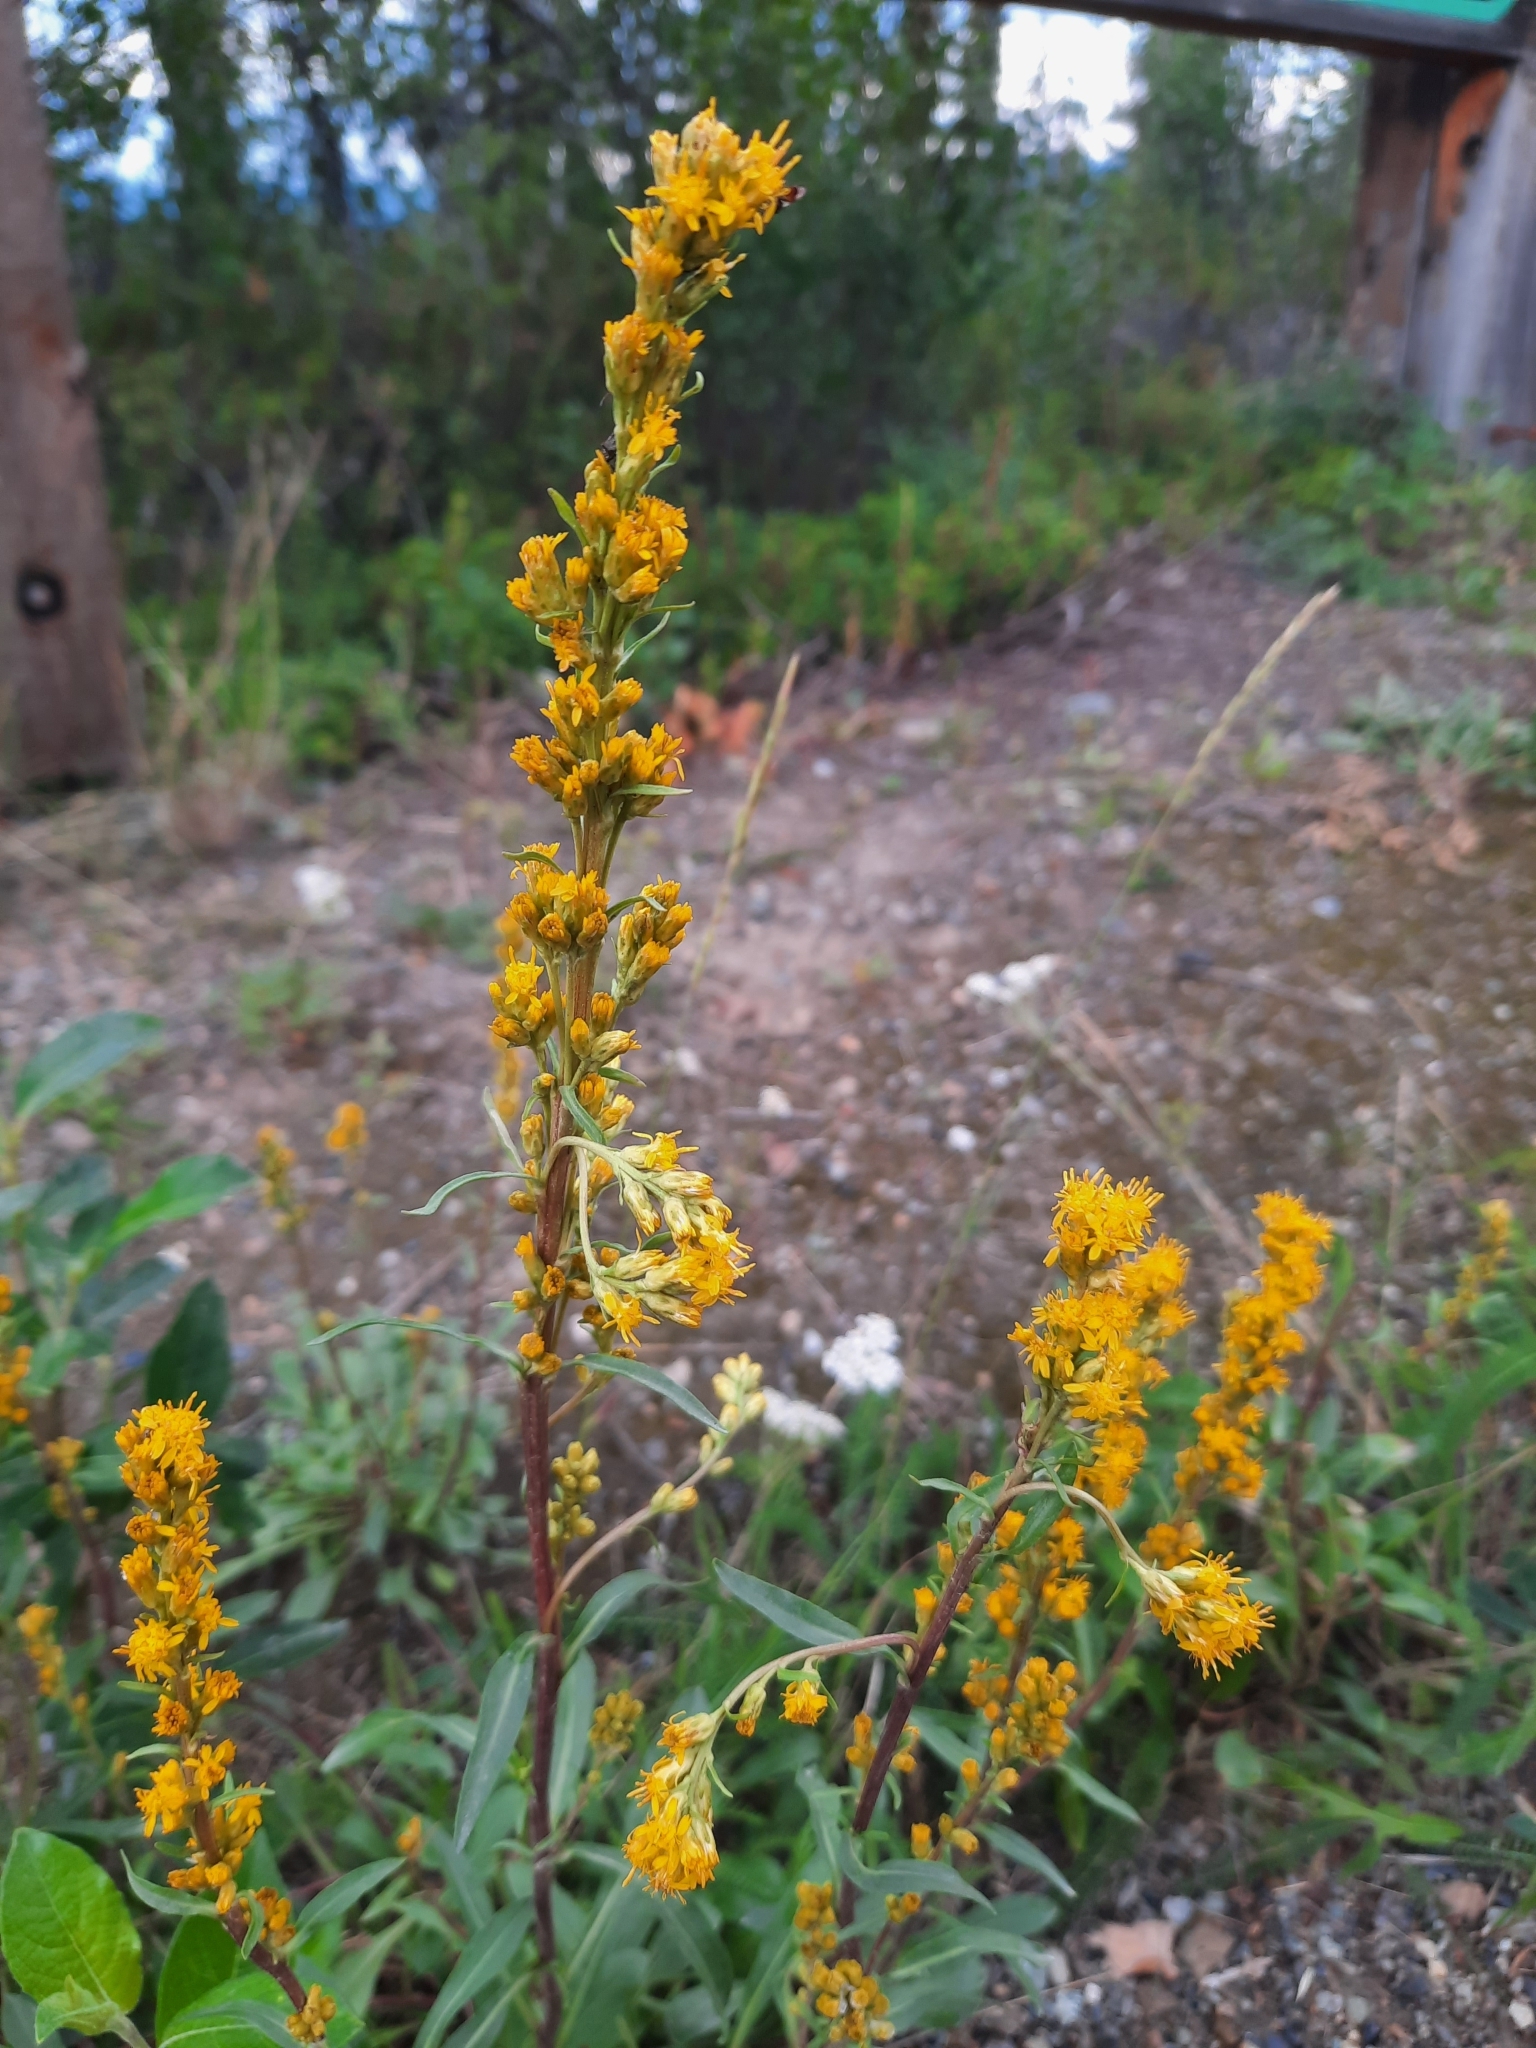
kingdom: Plantae
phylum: Tracheophyta
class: Magnoliopsida
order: Asterales
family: Asteraceae
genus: Solidago
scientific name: Solidago glutinosa
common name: Decumbent goldenrod
